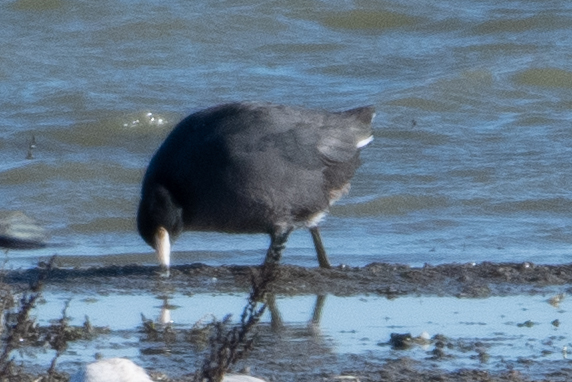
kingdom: Animalia
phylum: Chordata
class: Aves
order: Gruiformes
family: Rallidae
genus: Fulica
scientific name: Fulica americana
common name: American coot
